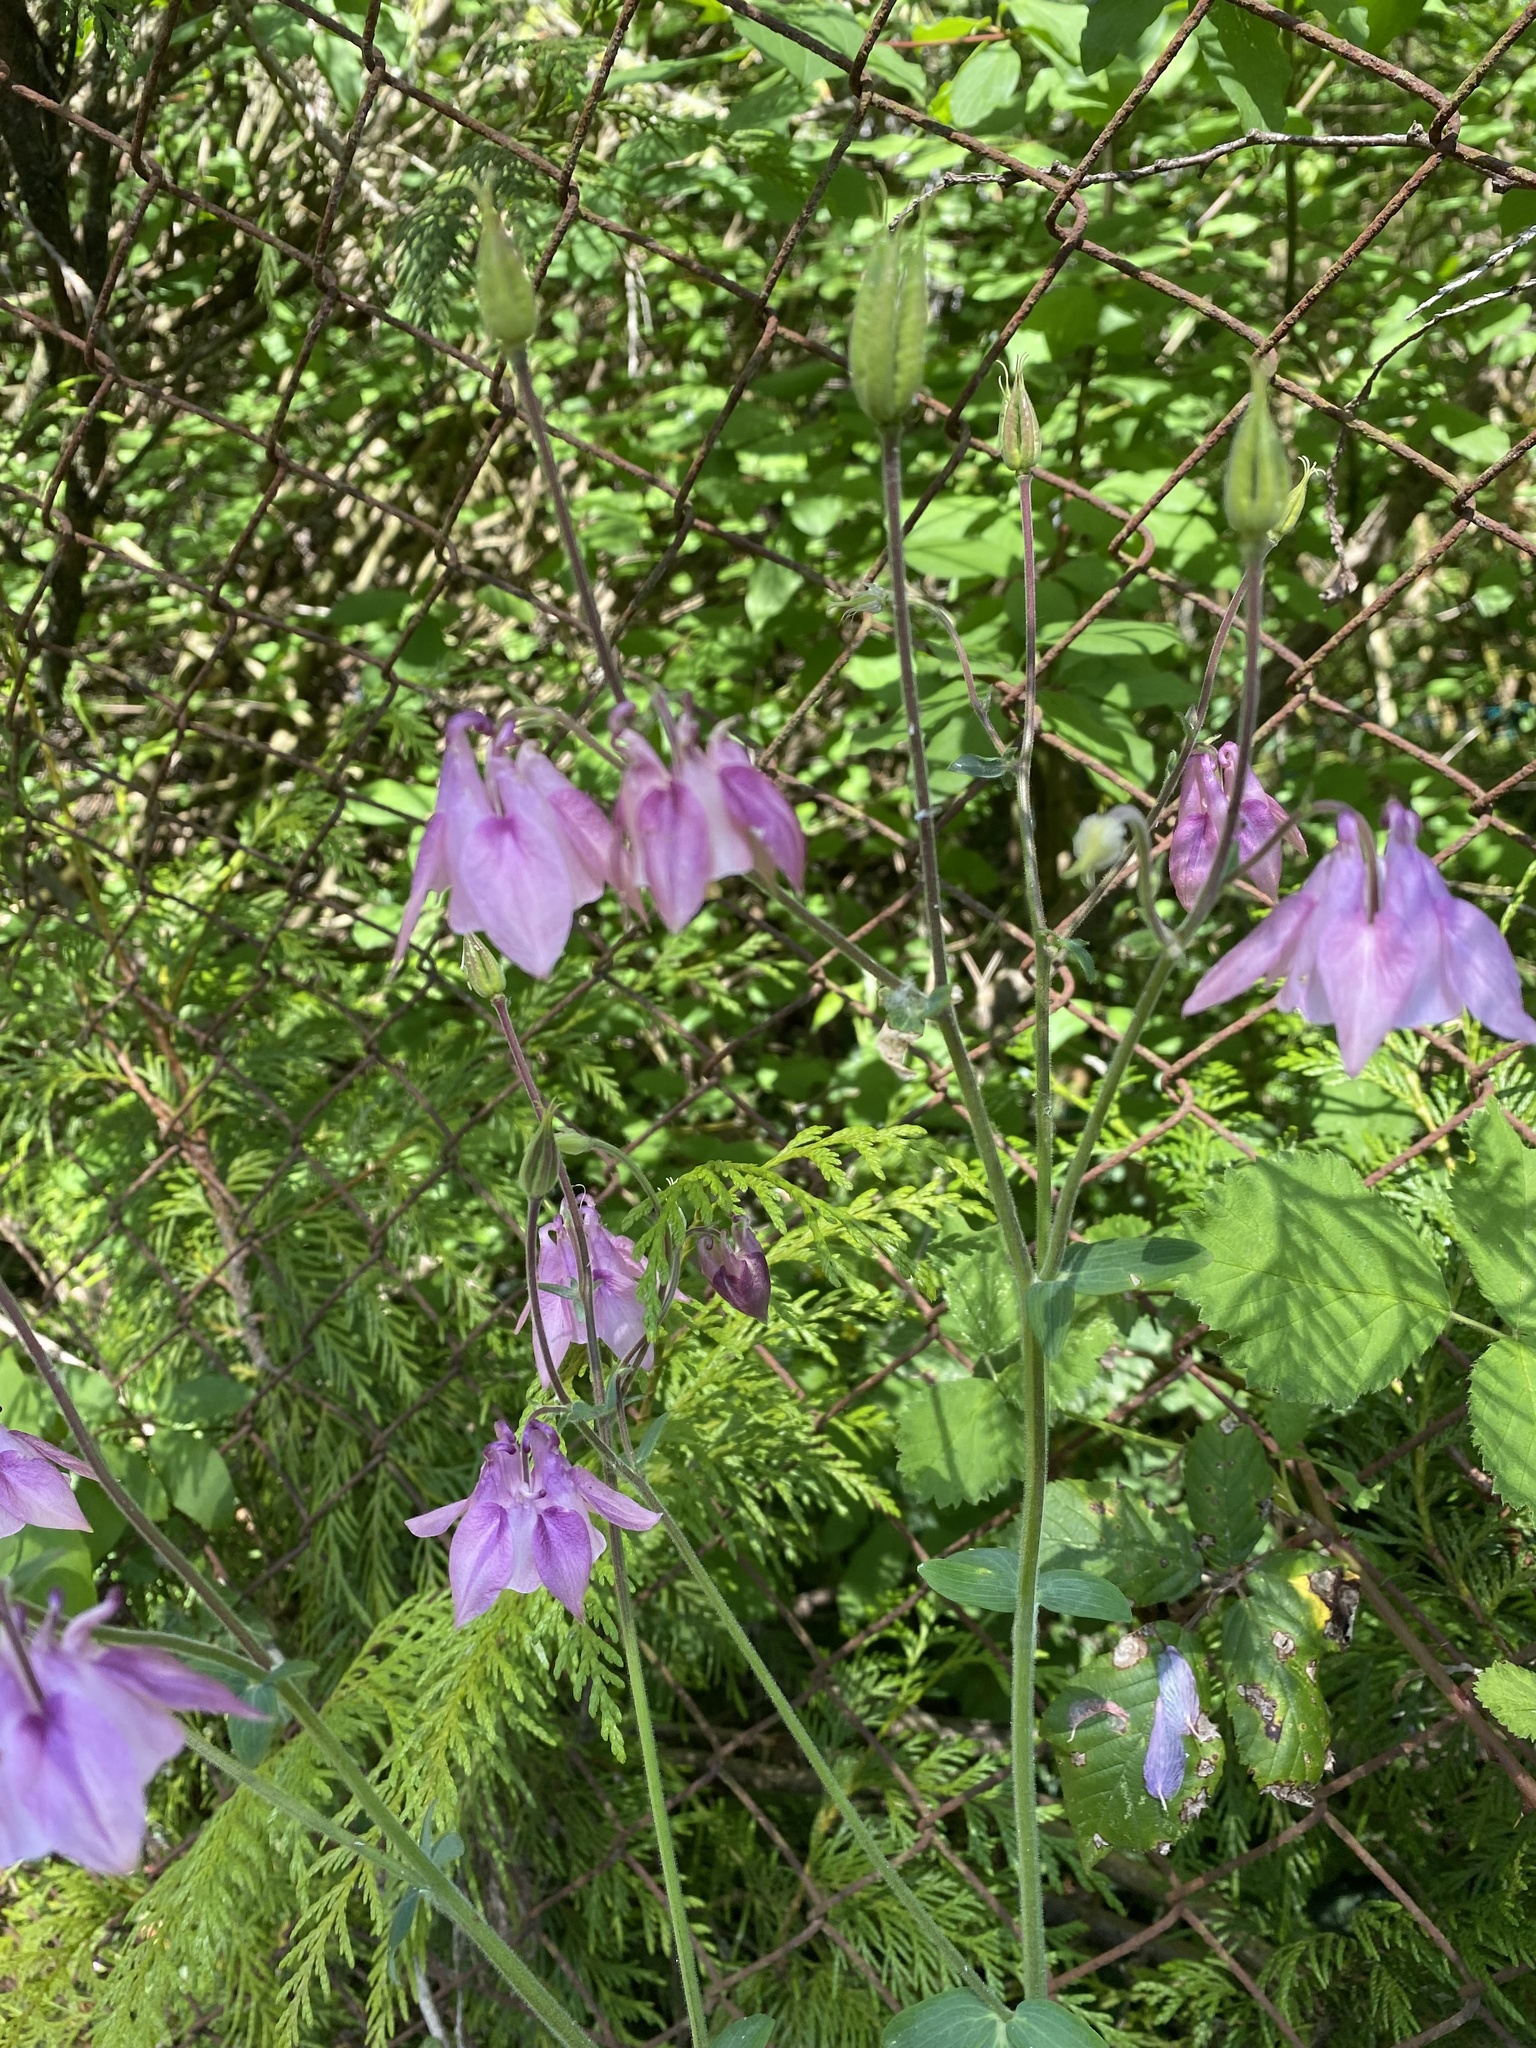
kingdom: Plantae
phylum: Tracheophyta
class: Magnoliopsida
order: Ranunculales
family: Ranunculaceae
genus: Aquilegia
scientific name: Aquilegia vulgaris
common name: Columbine
